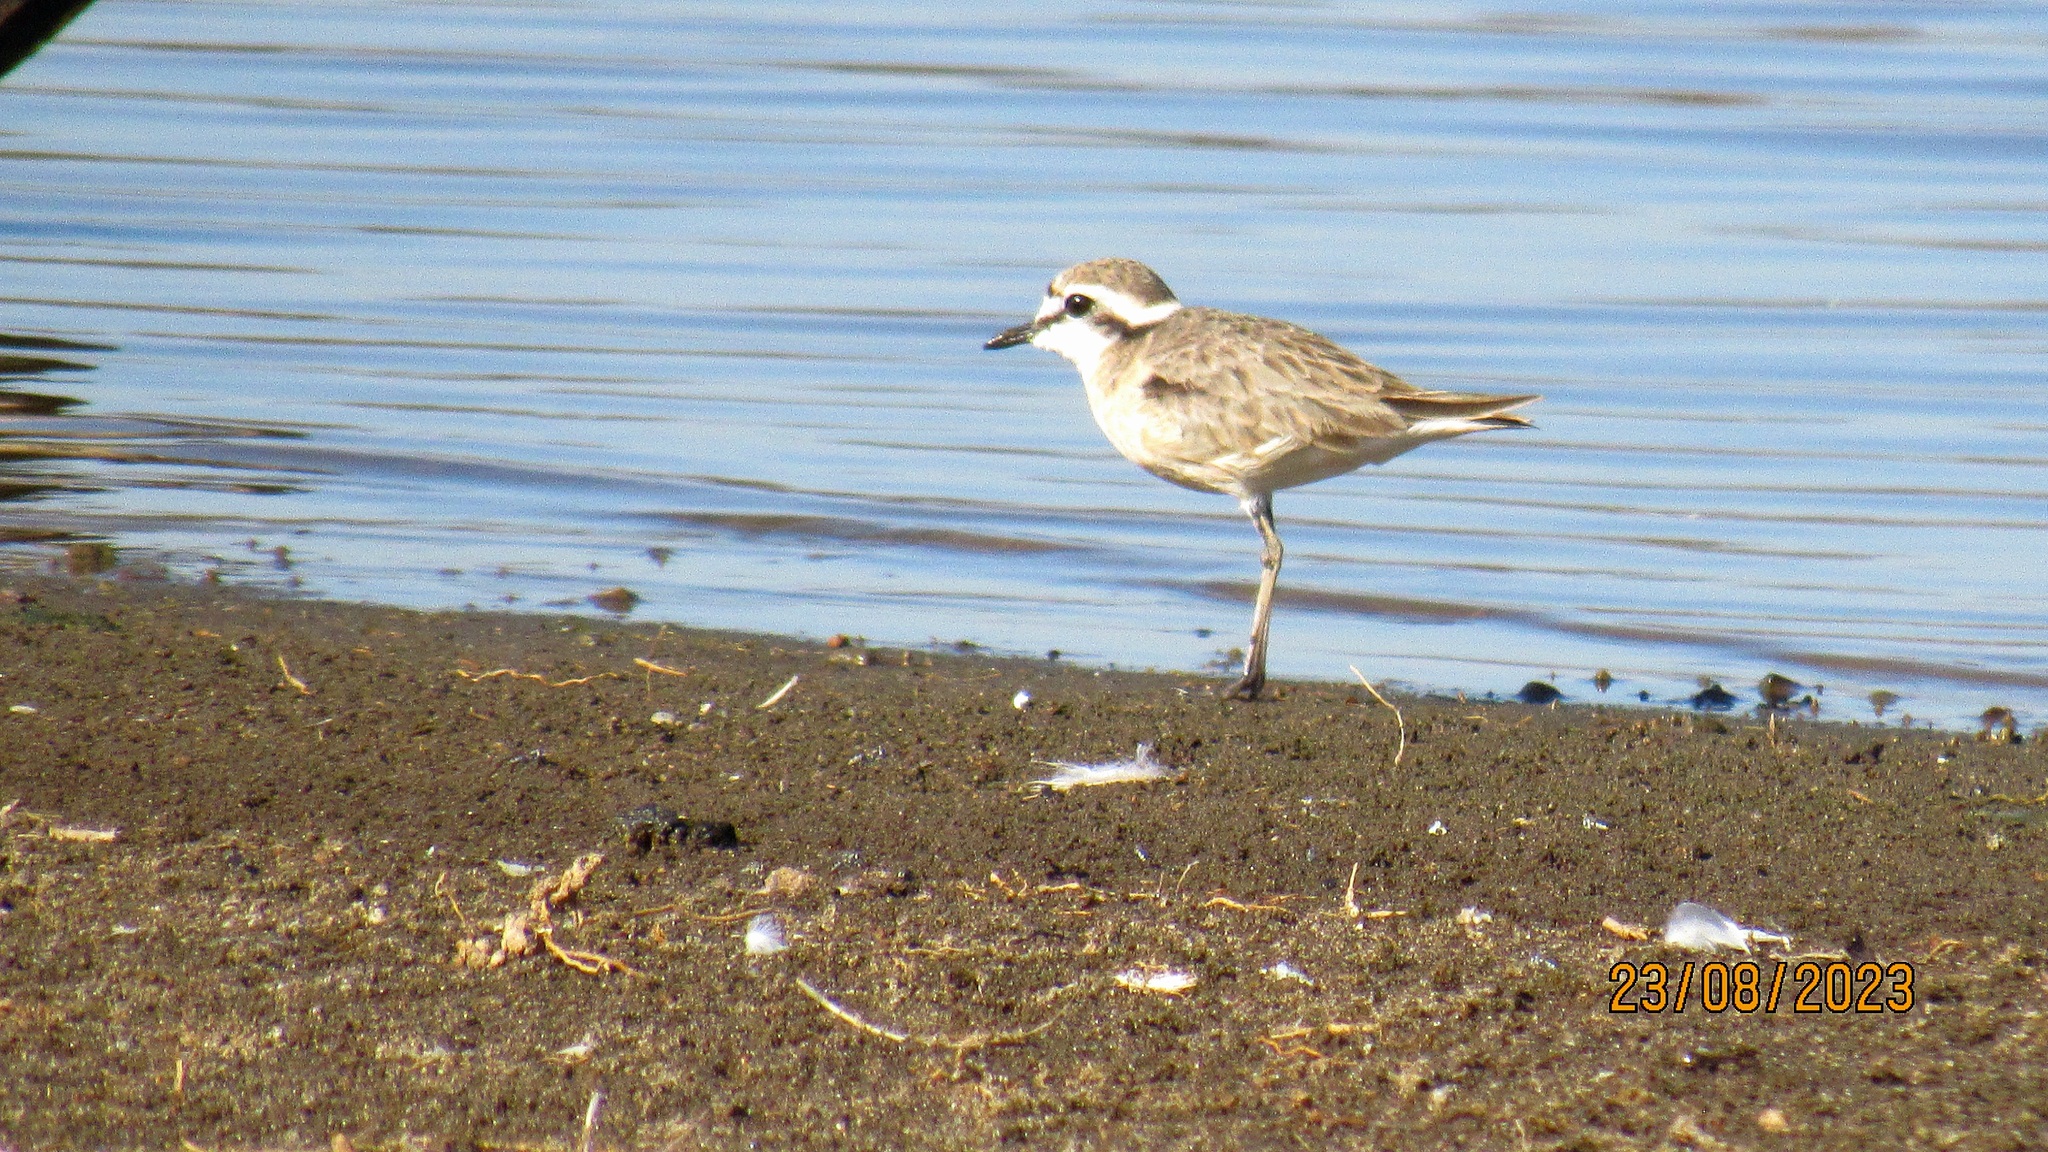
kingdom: Animalia
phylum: Chordata
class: Aves
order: Charadriiformes
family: Charadriidae
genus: Anarhynchus
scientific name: Anarhynchus
